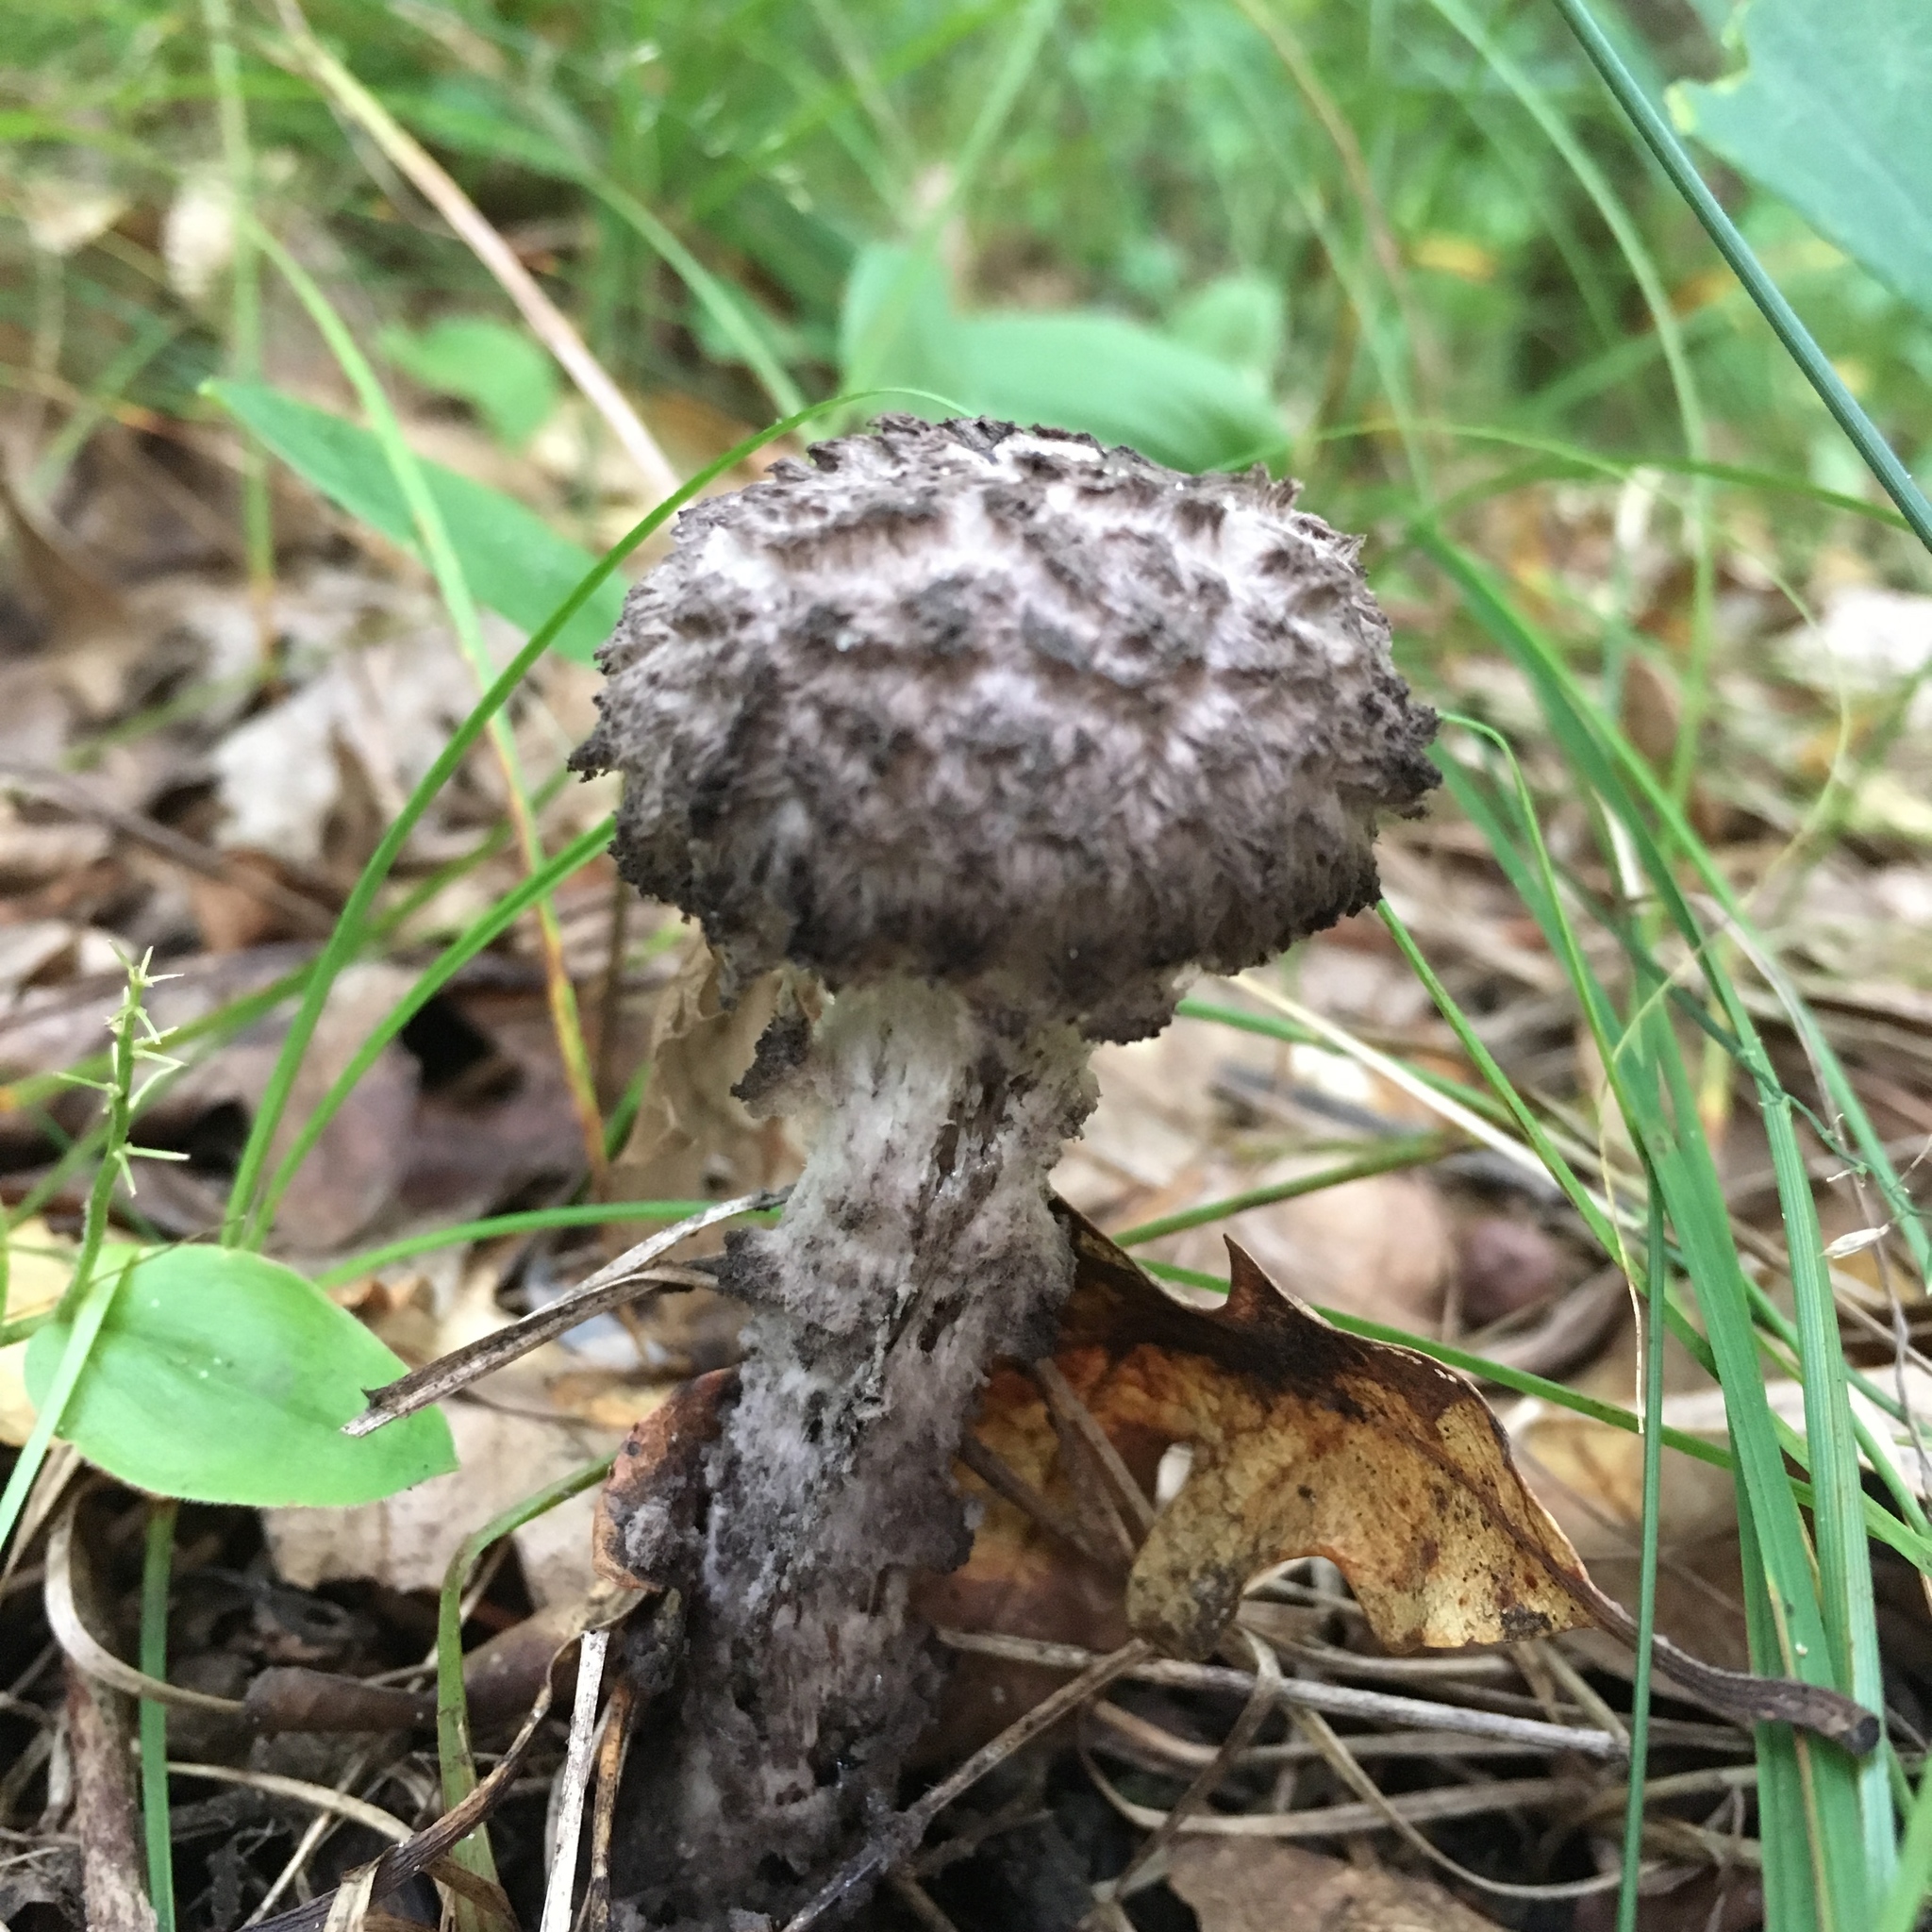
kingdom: Fungi
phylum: Basidiomycota
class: Agaricomycetes
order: Boletales
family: Boletaceae
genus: Strobilomyces
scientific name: Strobilomyces strobilaceus
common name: Old man of the woods
